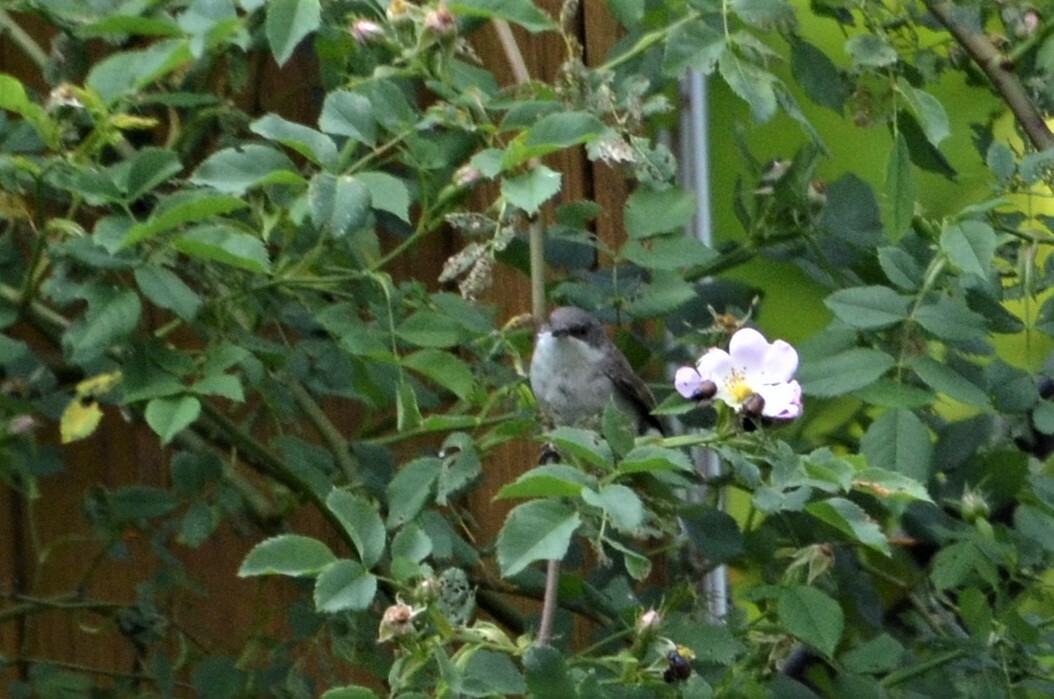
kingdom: Animalia
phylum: Chordata
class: Aves
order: Passeriformes
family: Sylviidae
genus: Sylvia
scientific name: Sylvia curruca
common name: Lesser whitethroat
